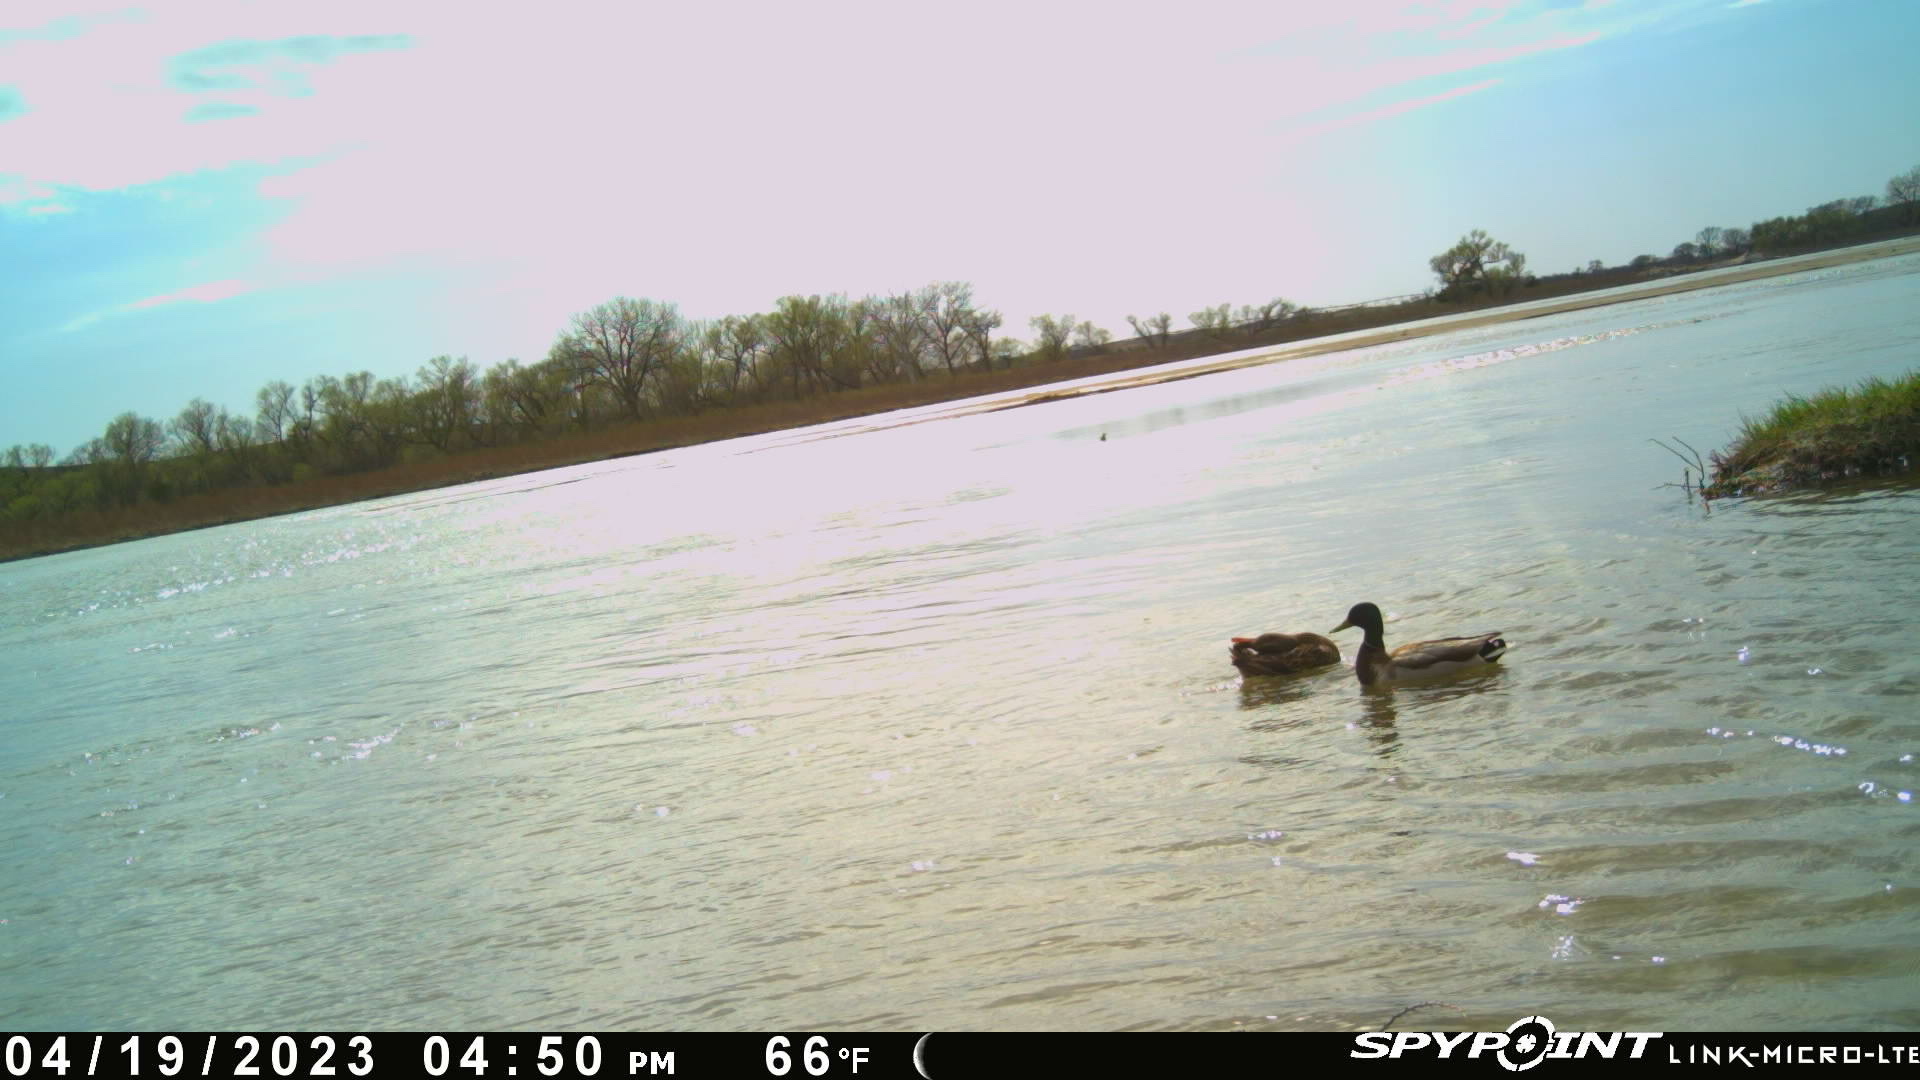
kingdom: Animalia
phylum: Chordata
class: Aves
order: Anseriformes
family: Anatidae
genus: Anas
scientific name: Anas platyrhynchos
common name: Mallard
